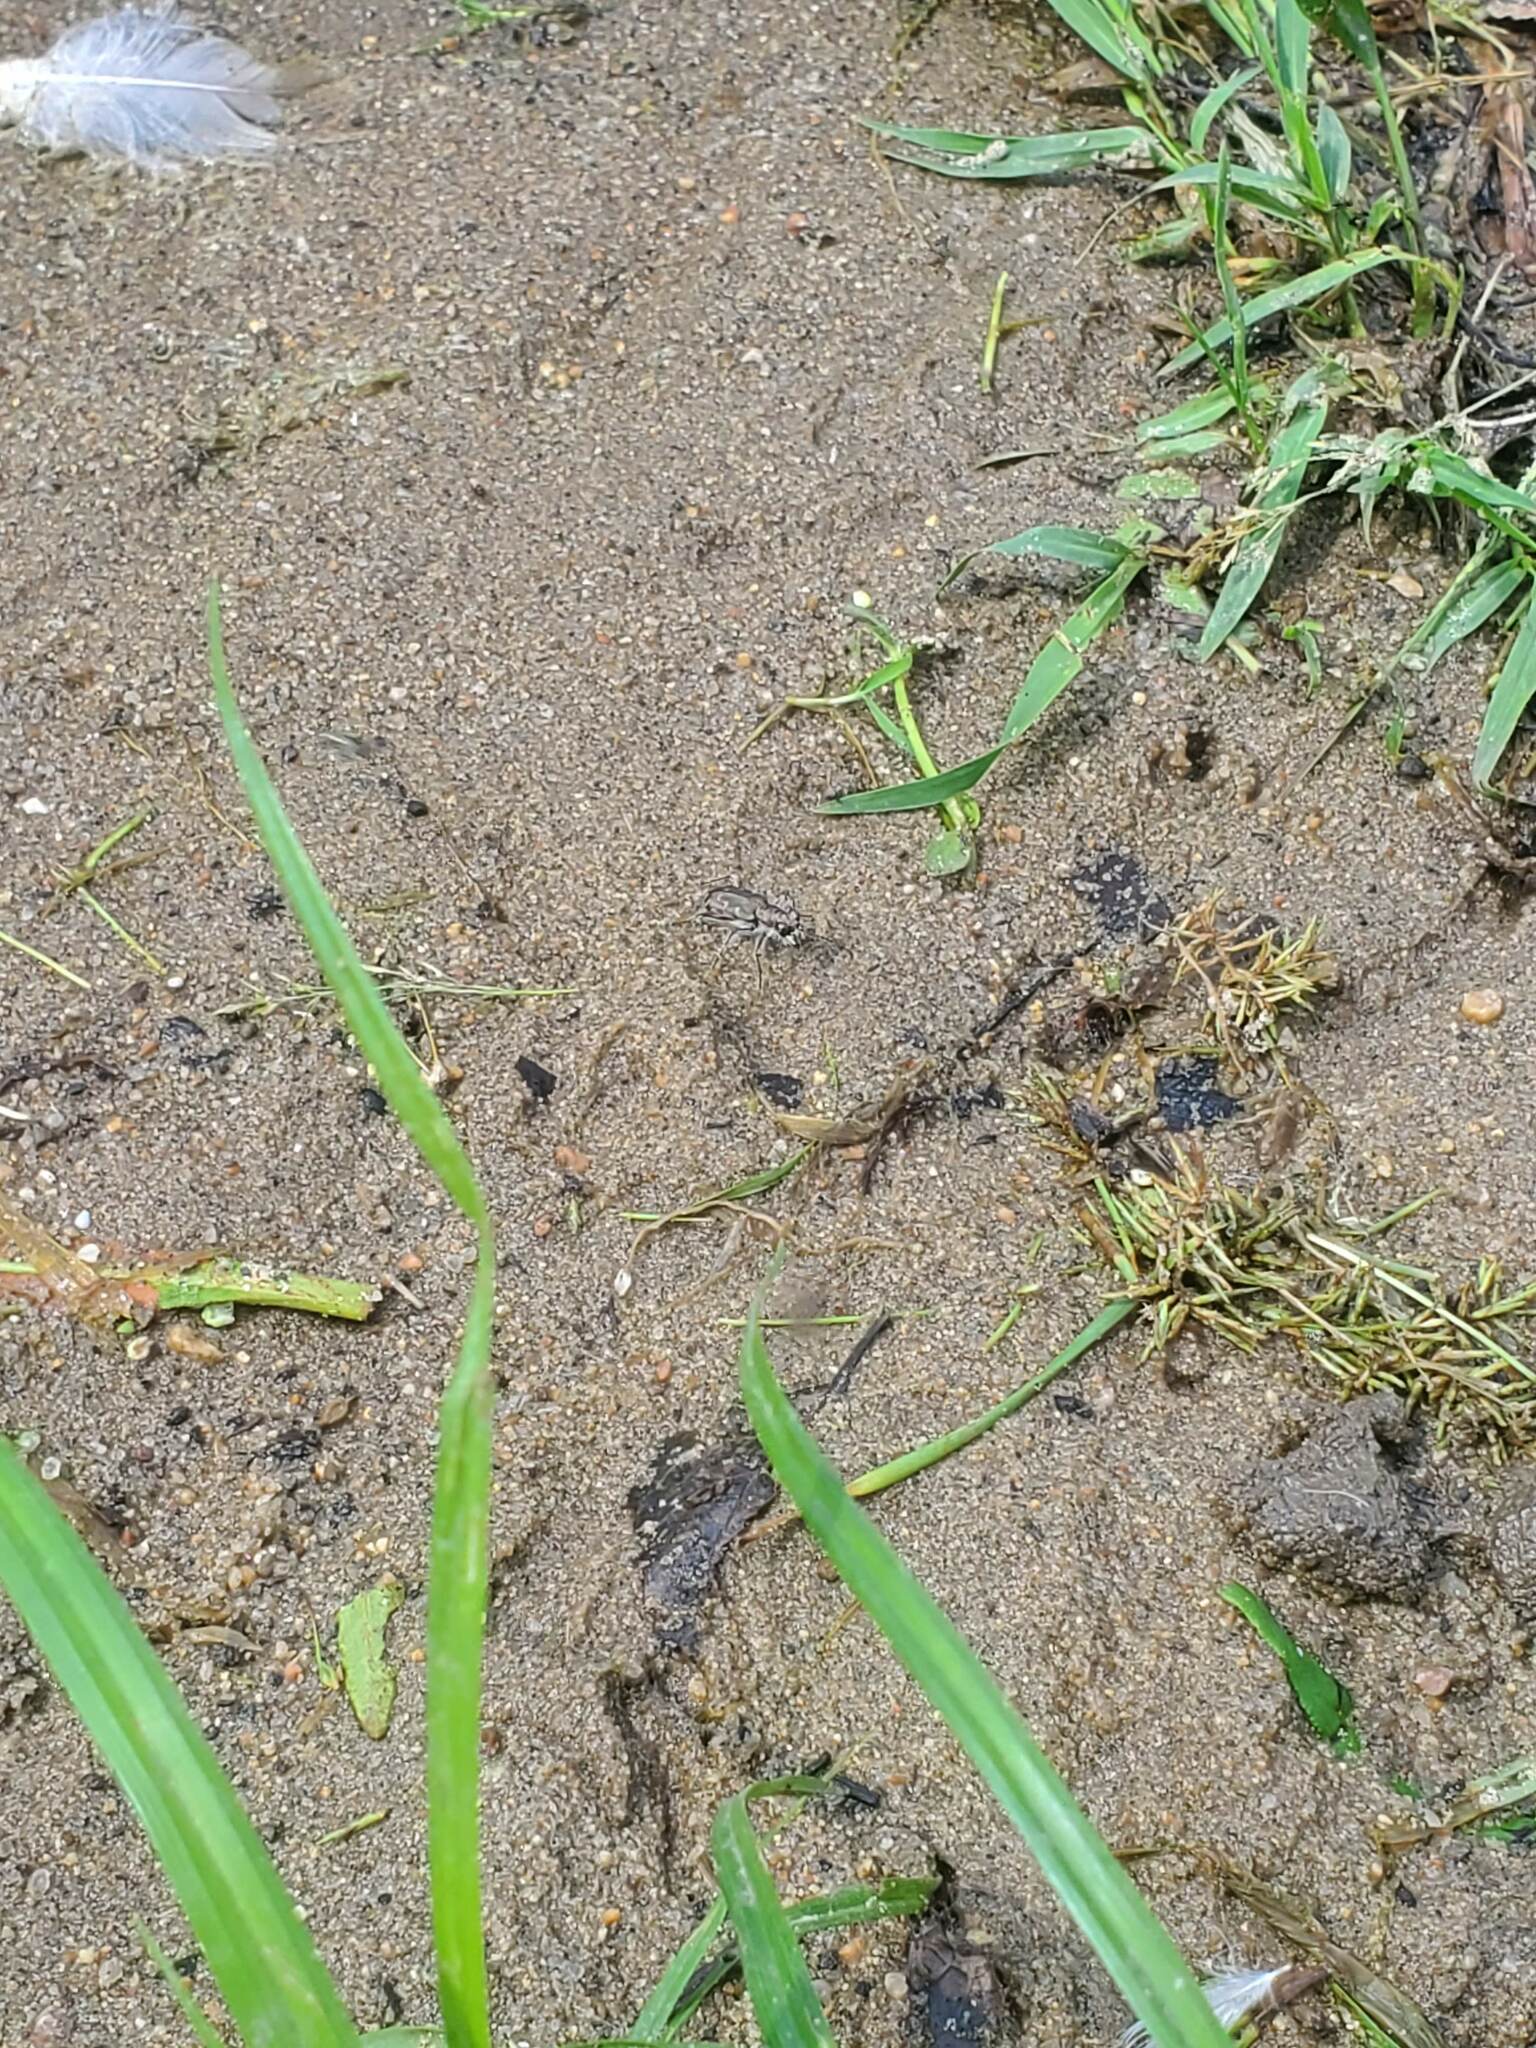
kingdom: Animalia
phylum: Arthropoda
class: Insecta
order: Coleoptera
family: Carabidae
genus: Cicindela
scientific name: Cicindela repanda
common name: Bronzed tiger beetle
